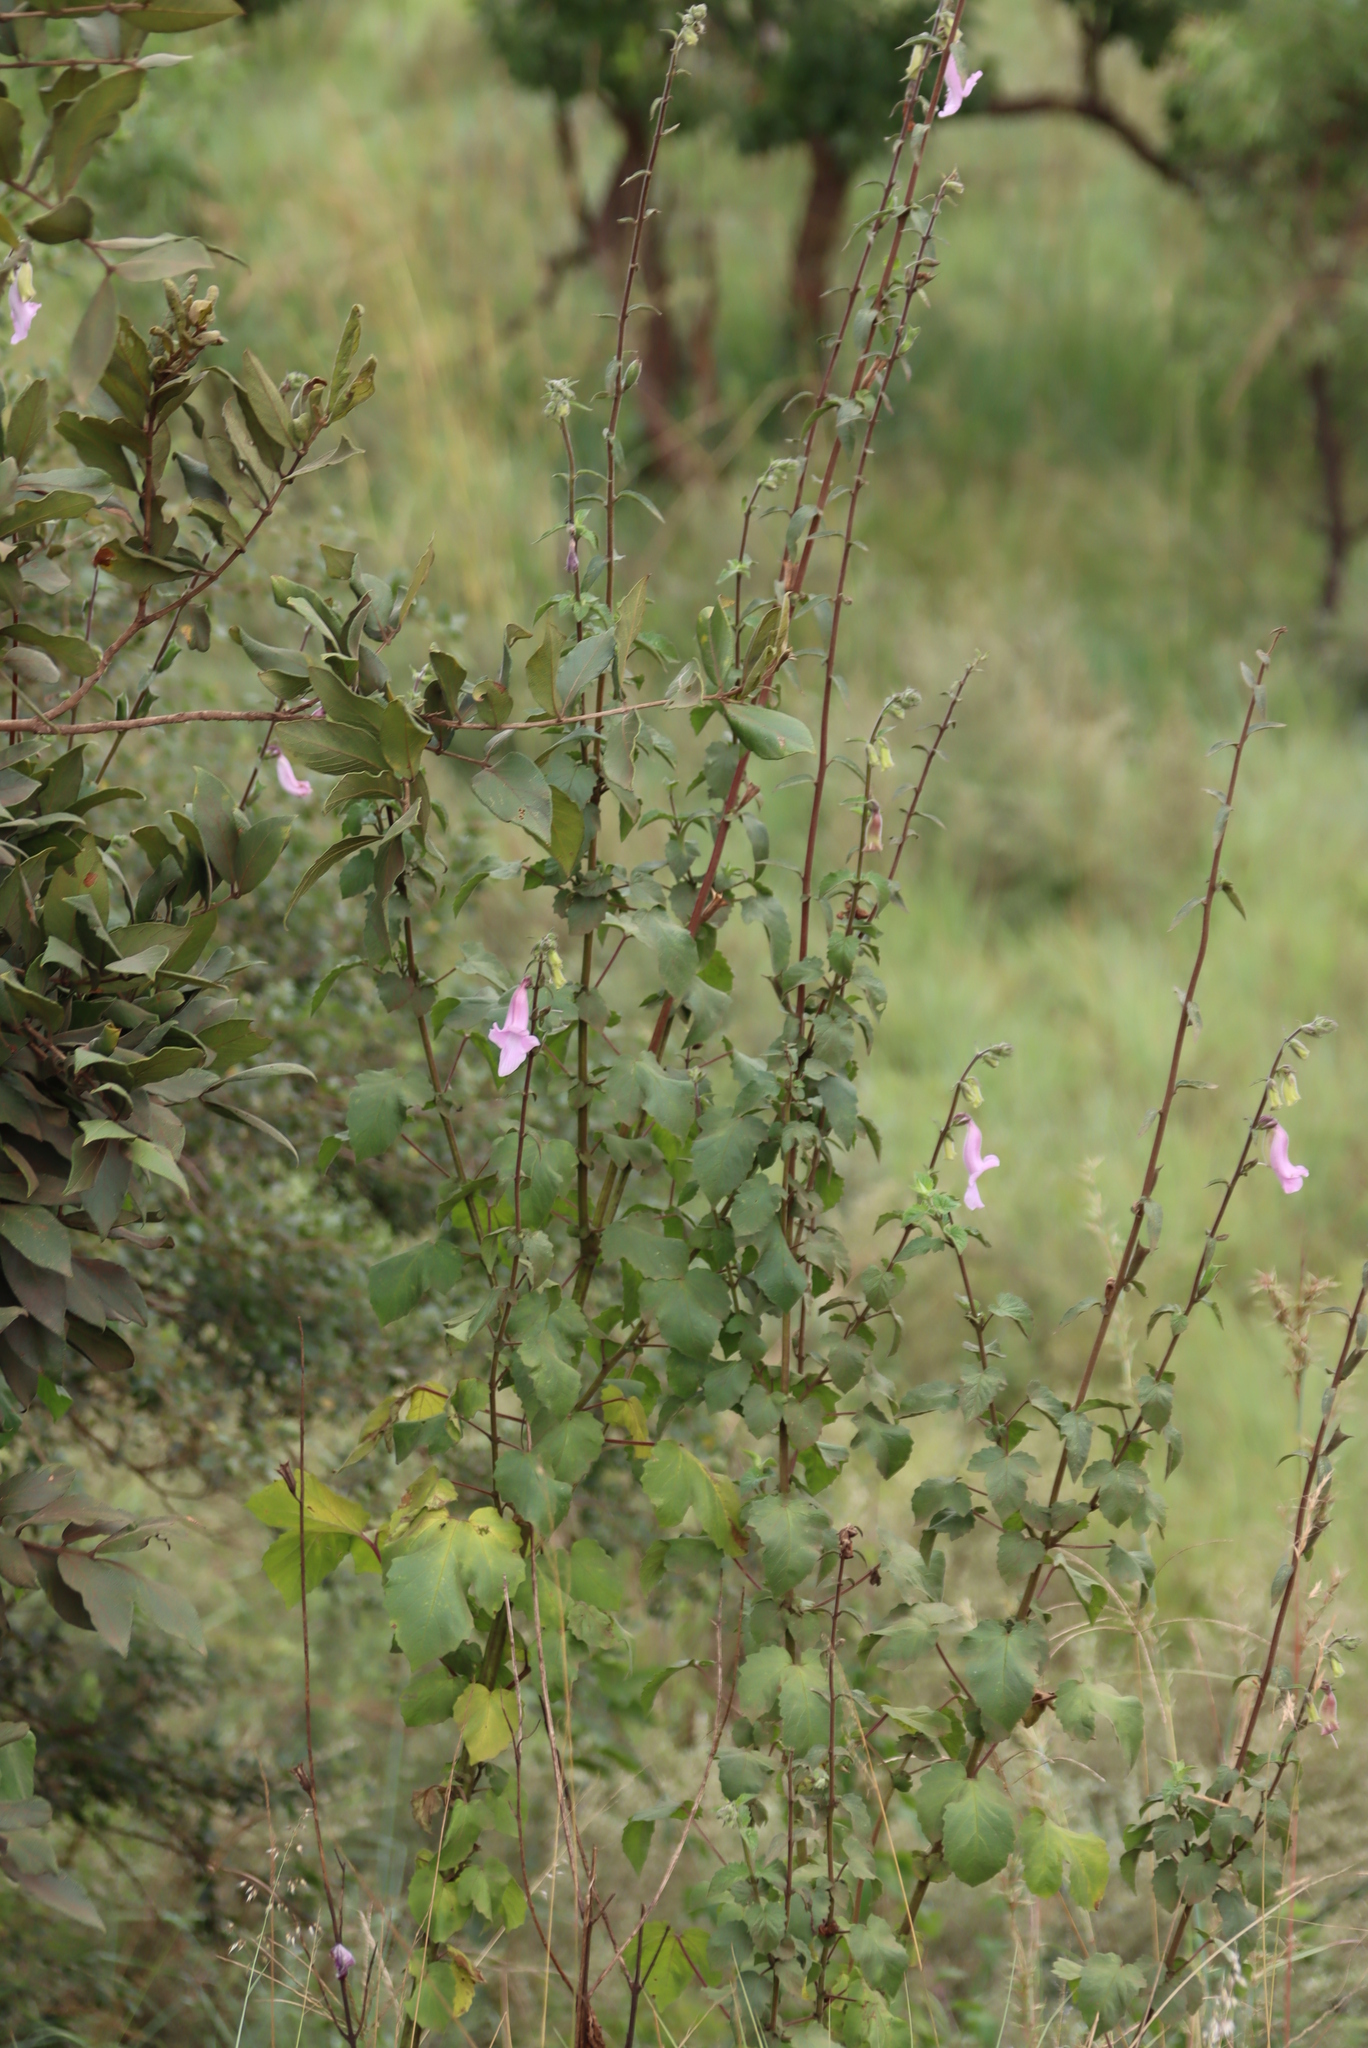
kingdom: Plantae
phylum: Tracheophyta
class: Magnoliopsida
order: Lamiales
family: Pedaliaceae
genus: Sesamum
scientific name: Sesamum trilobum
